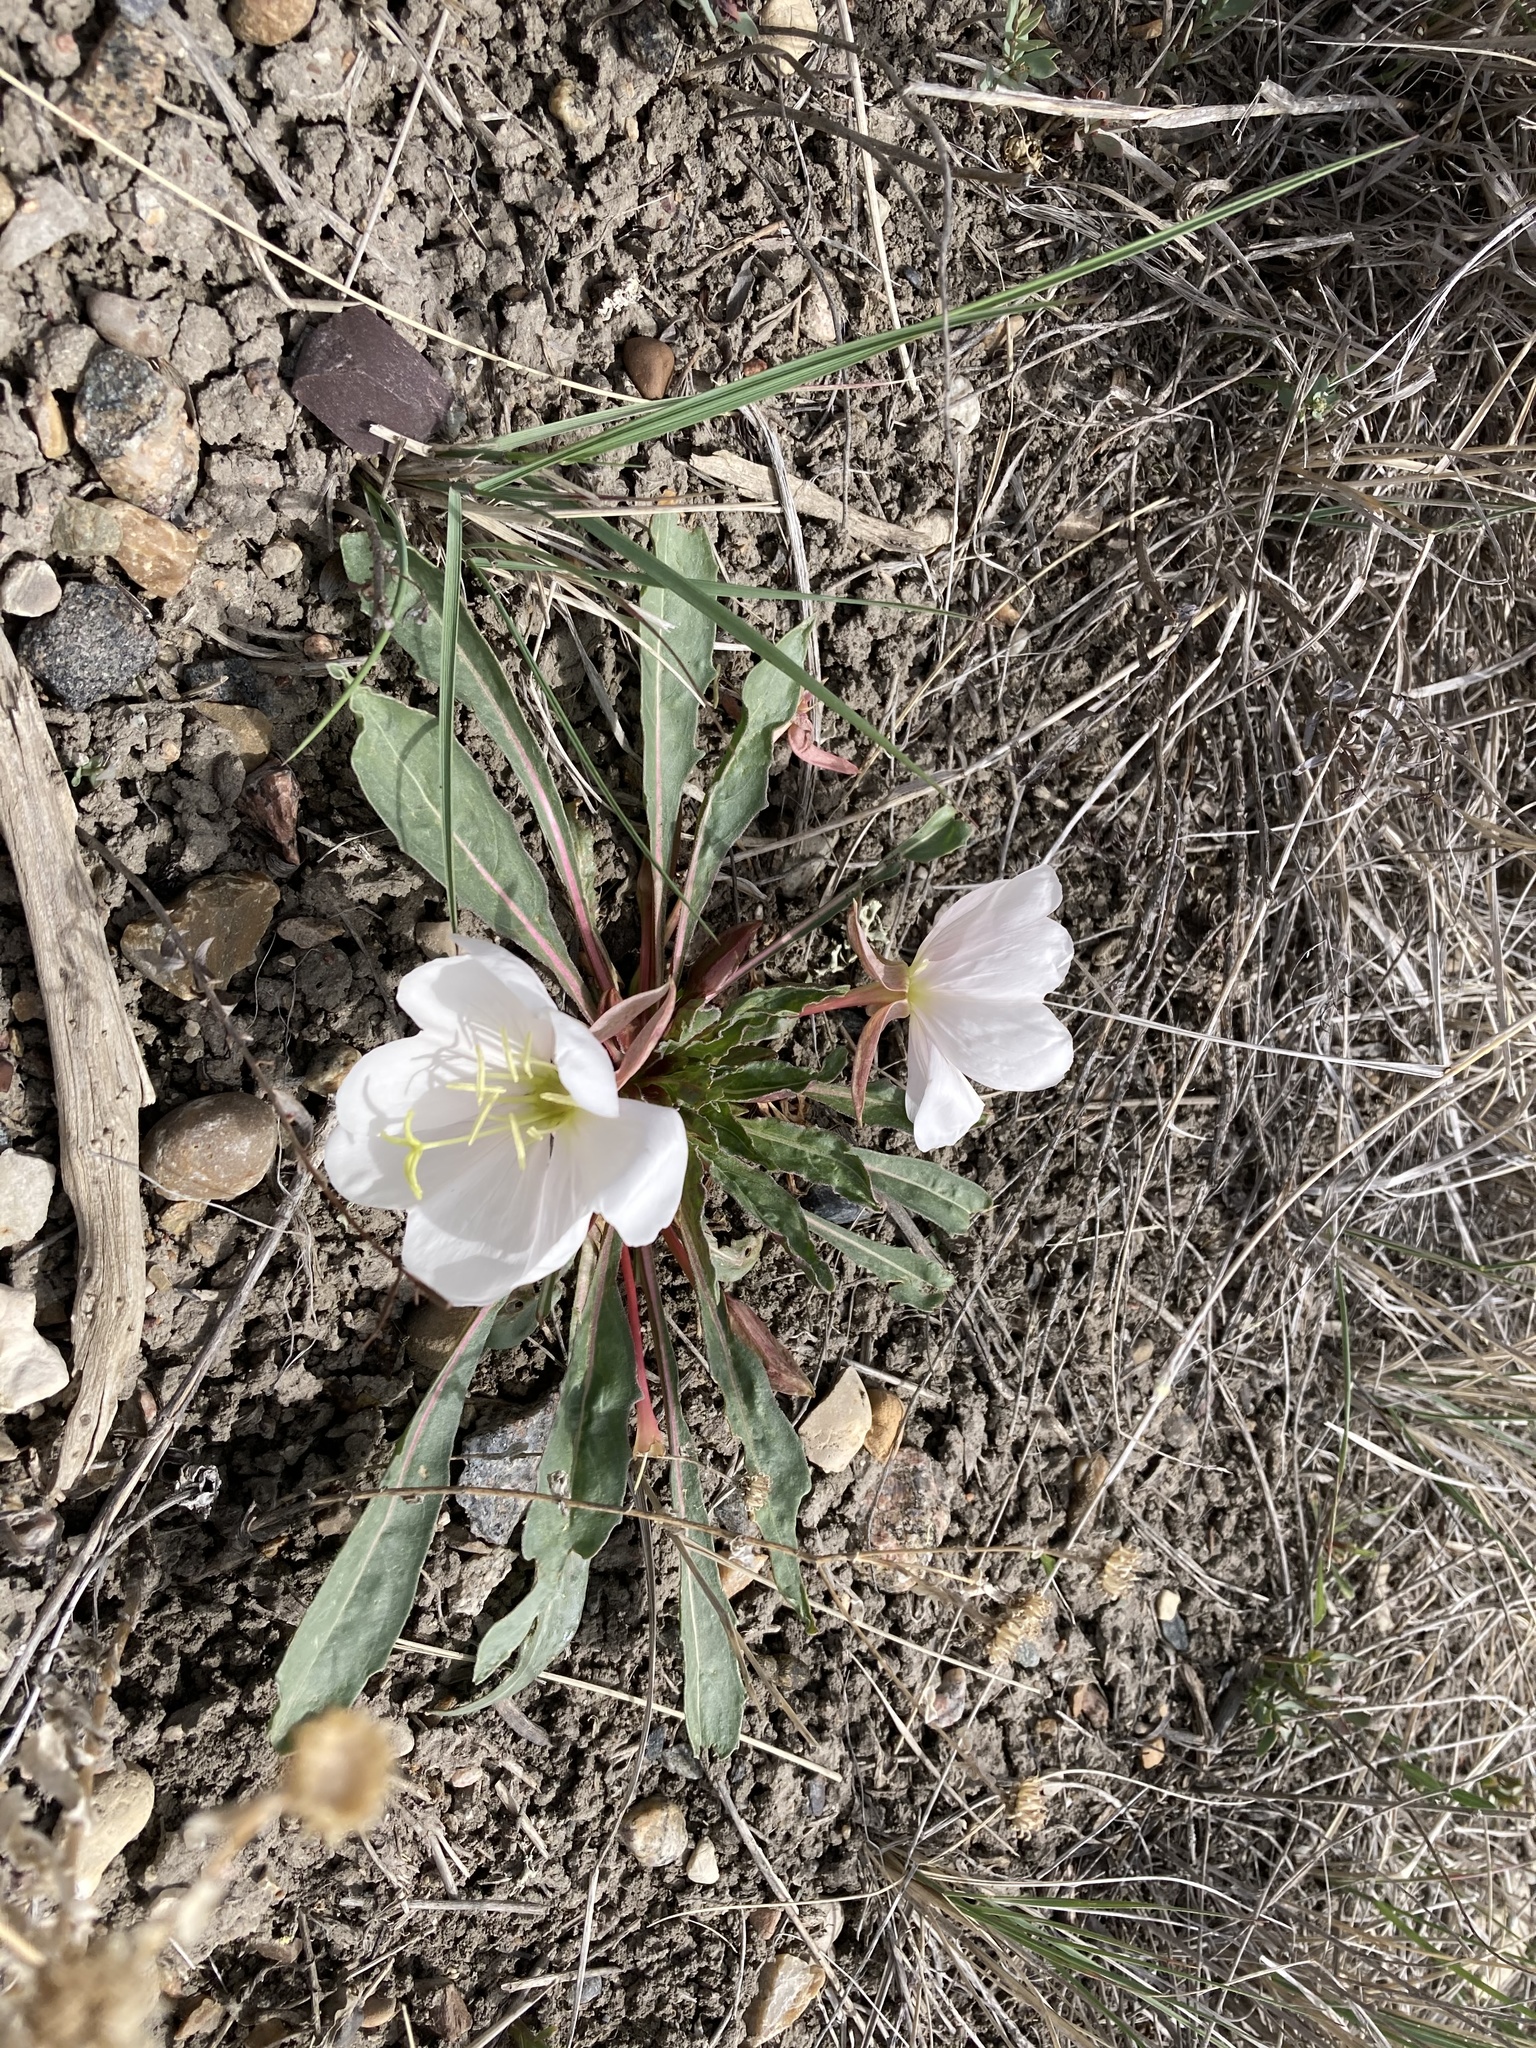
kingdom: Plantae
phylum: Tracheophyta
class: Magnoliopsida
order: Myrtales
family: Onagraceae
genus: Oenothera
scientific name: Oenothera cespitosa
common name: Tufted evening-primrose
